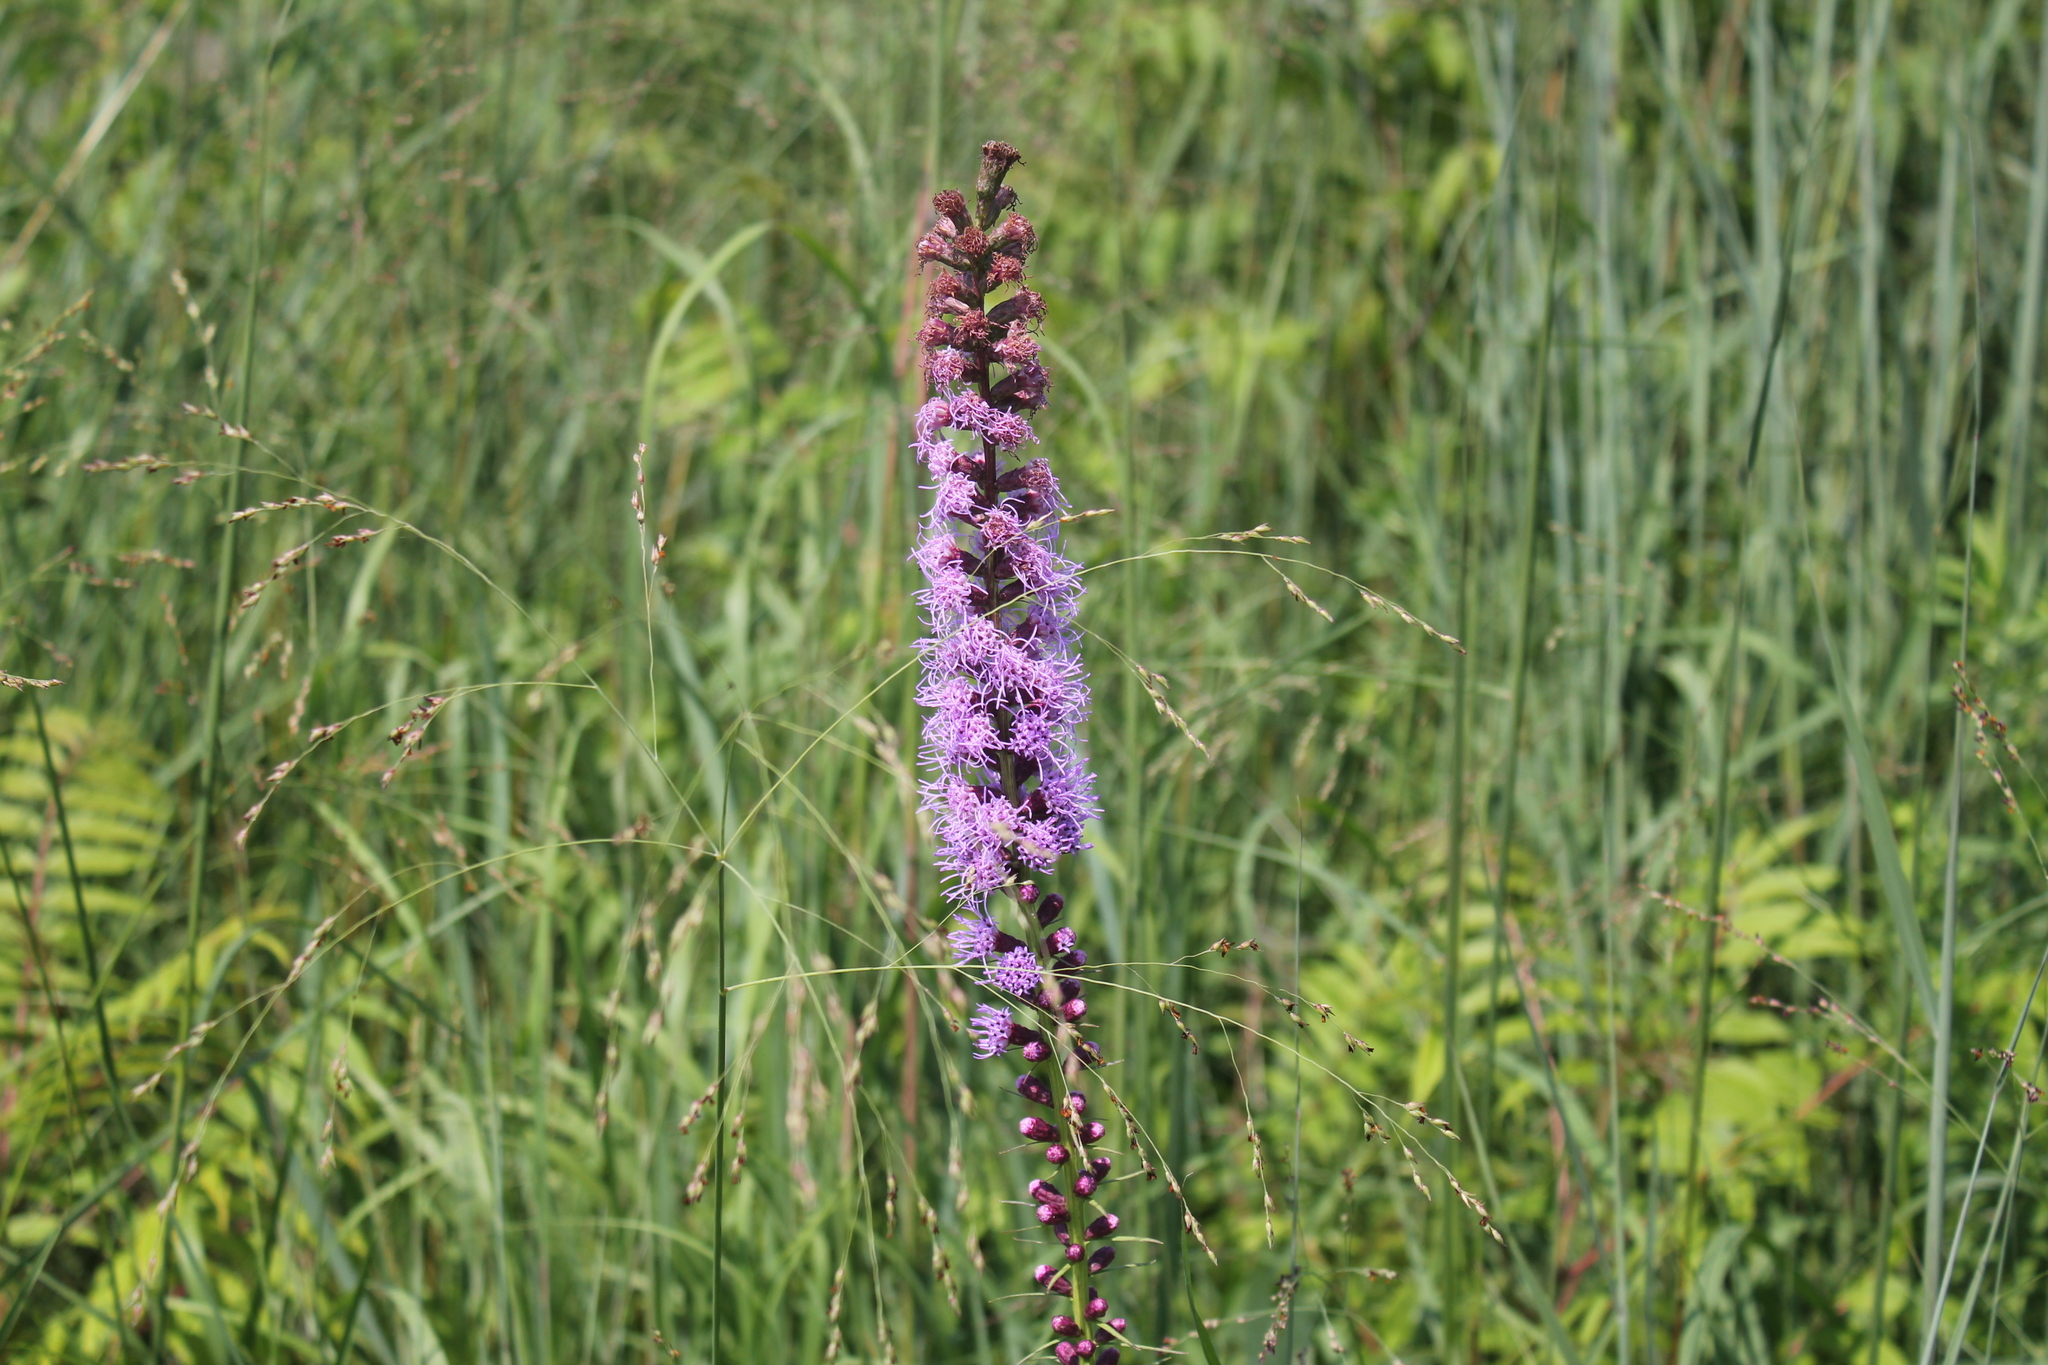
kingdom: Plantae
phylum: Tracheophyta
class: Magnoliopsida
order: Asterales
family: Asteraceae
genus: Liatris
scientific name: Liatris spicata
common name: Florist gayfeather
